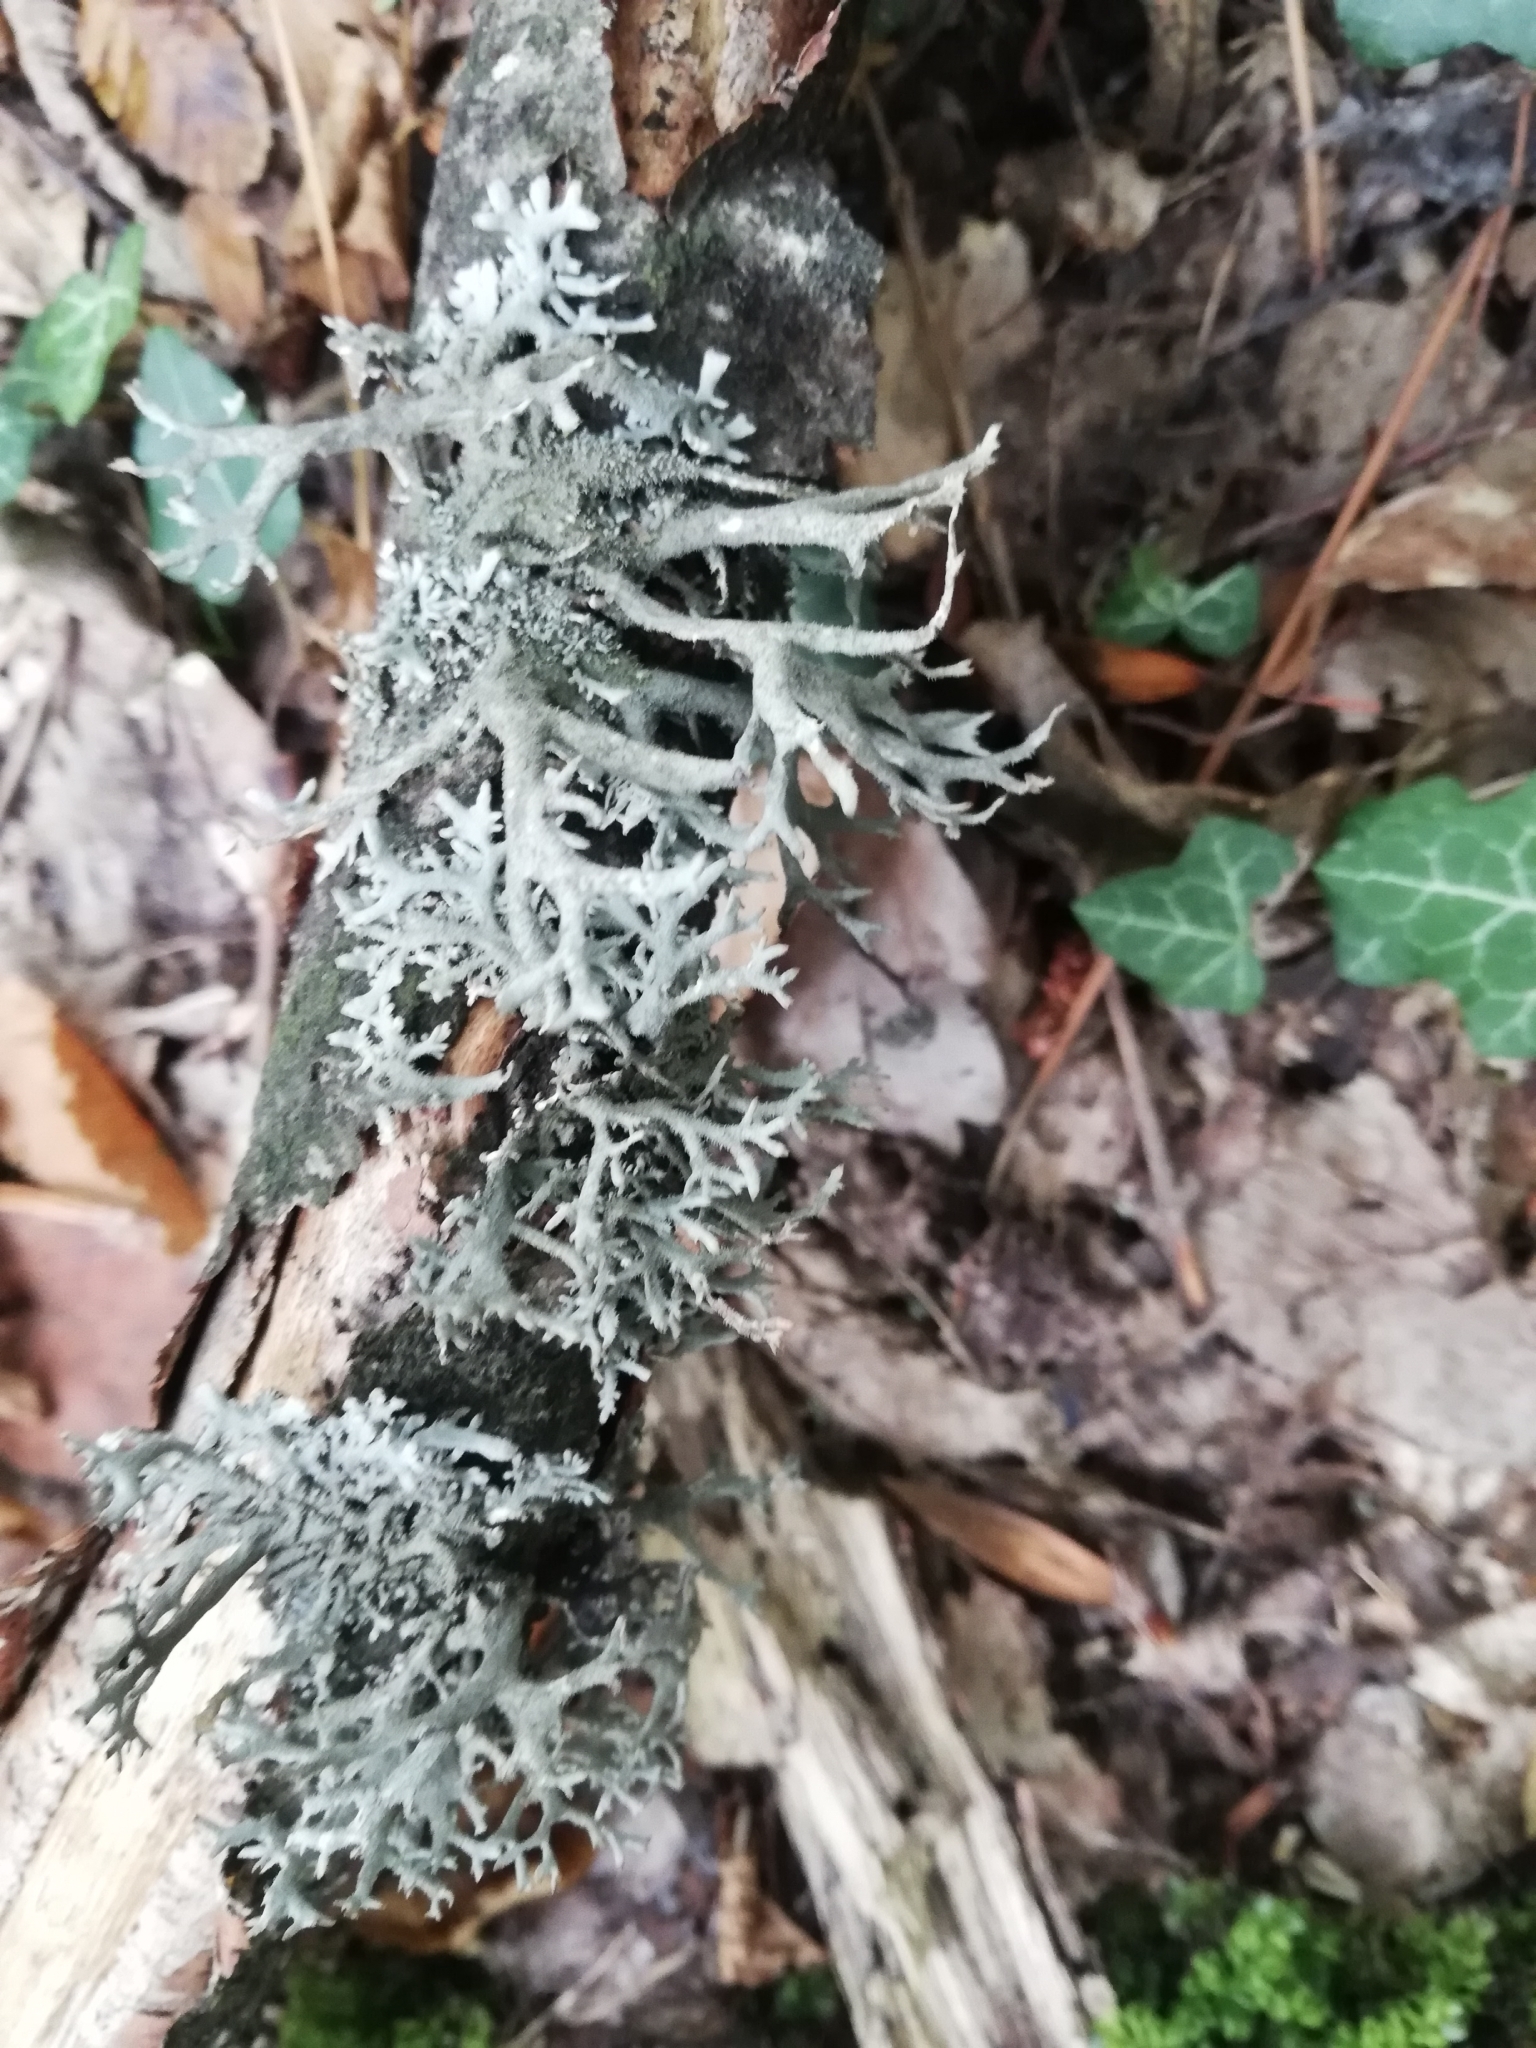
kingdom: Fungi
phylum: Ascomycota
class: Lecanoromycetes
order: Lecanorales
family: Parmeliaceae
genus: Pseudevernia
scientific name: Pseudevernia furfuracea
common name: Tree moss
